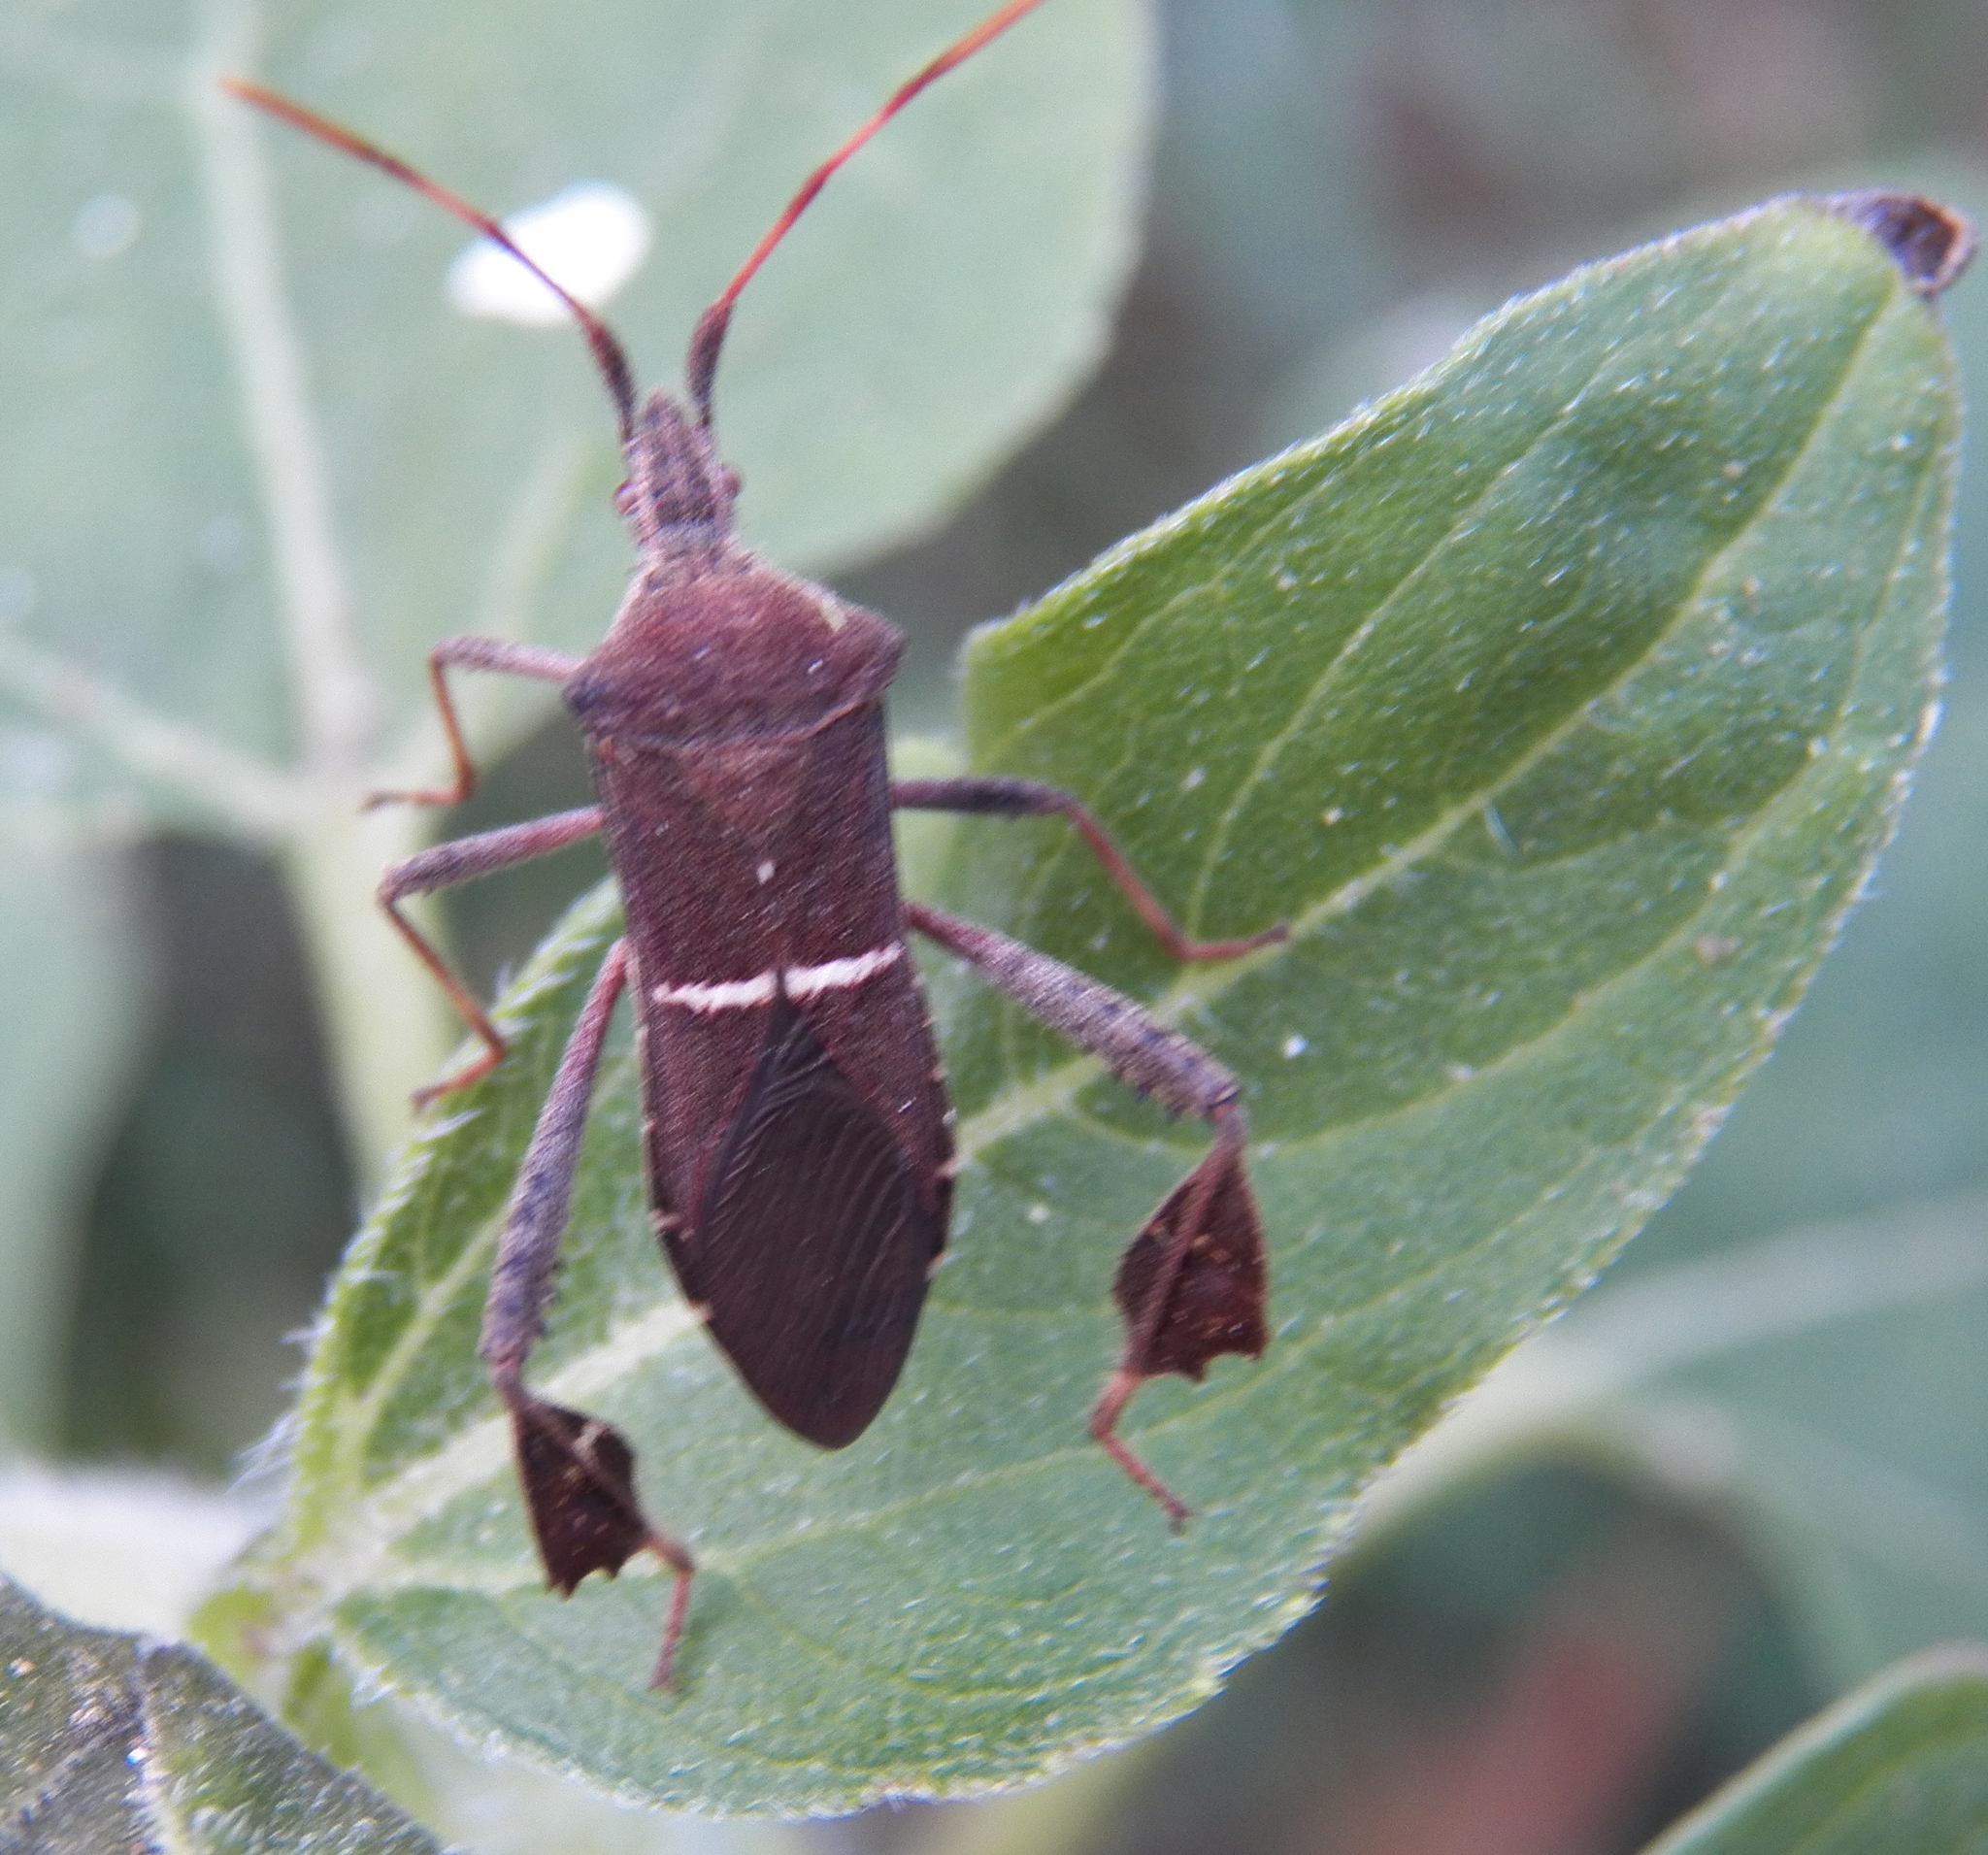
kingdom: Animalia
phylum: Arthropoda
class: Insecta
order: Hemiptera
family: Coreidae
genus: Leptoglossus
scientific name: Leptoglossus phyllopus
